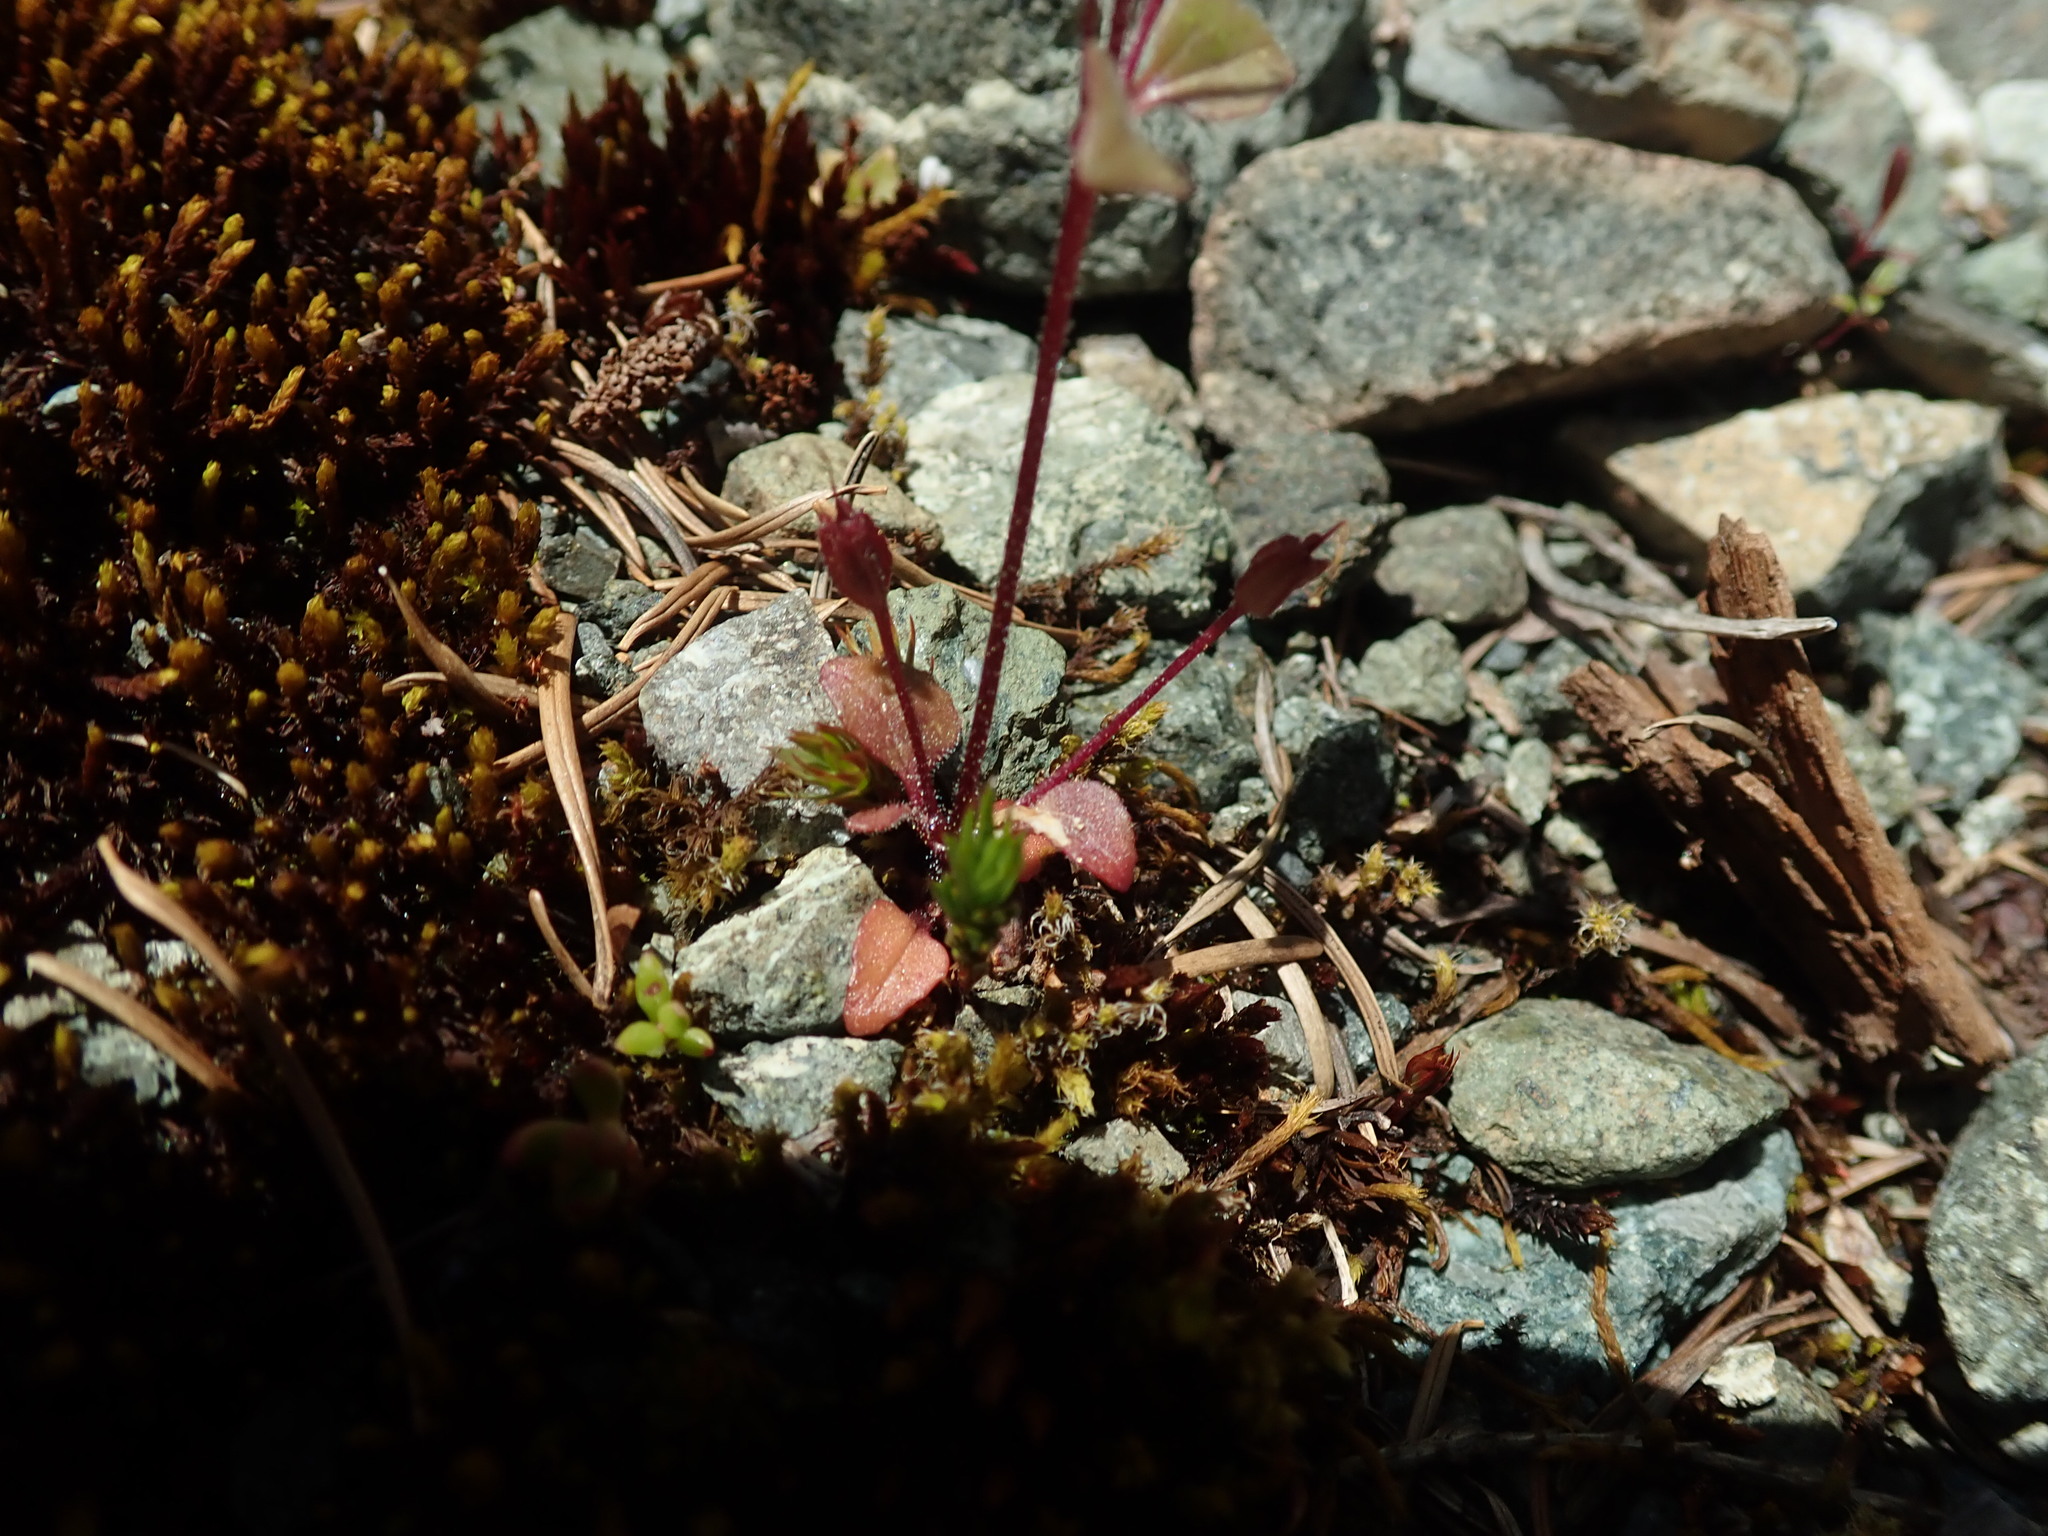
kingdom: Plantae
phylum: Tracheophyta
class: Magnoliopsida
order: Lamiales
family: Phrymaceae
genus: Erythranthe
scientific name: Erythranthe alsinoides
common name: Chickweed monkeyflower
